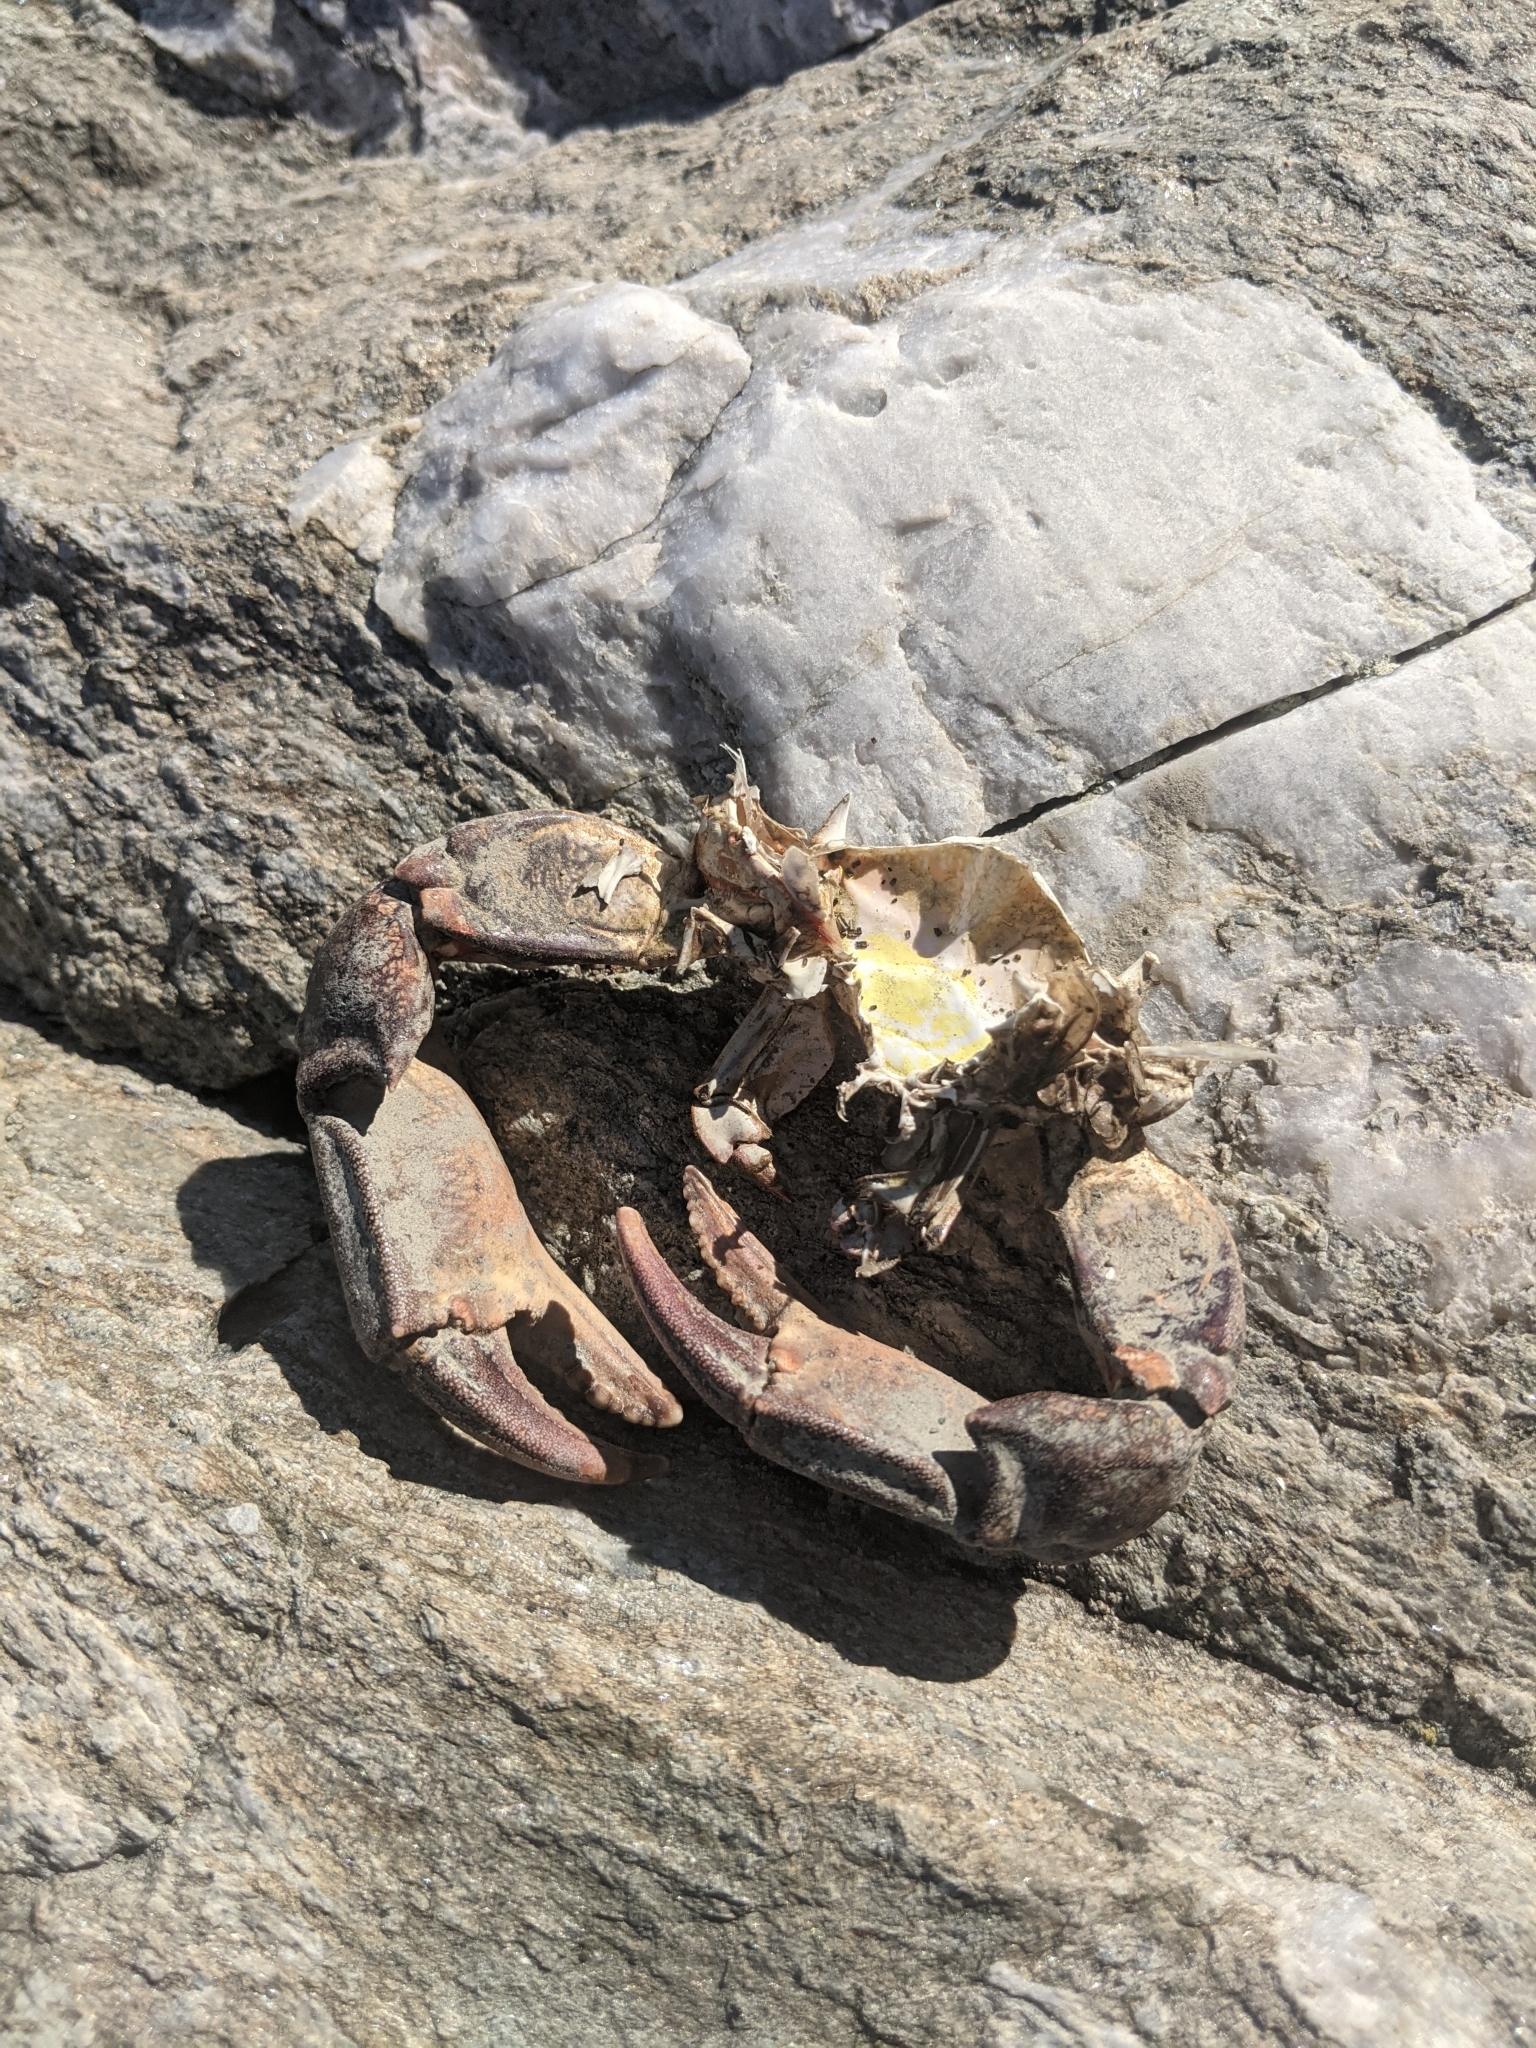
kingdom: Animalia
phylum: Arthropoda
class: Malacostraca
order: Decapoda
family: Carcinidae
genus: Carcinus
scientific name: Carcinus maenas
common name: European green crab
